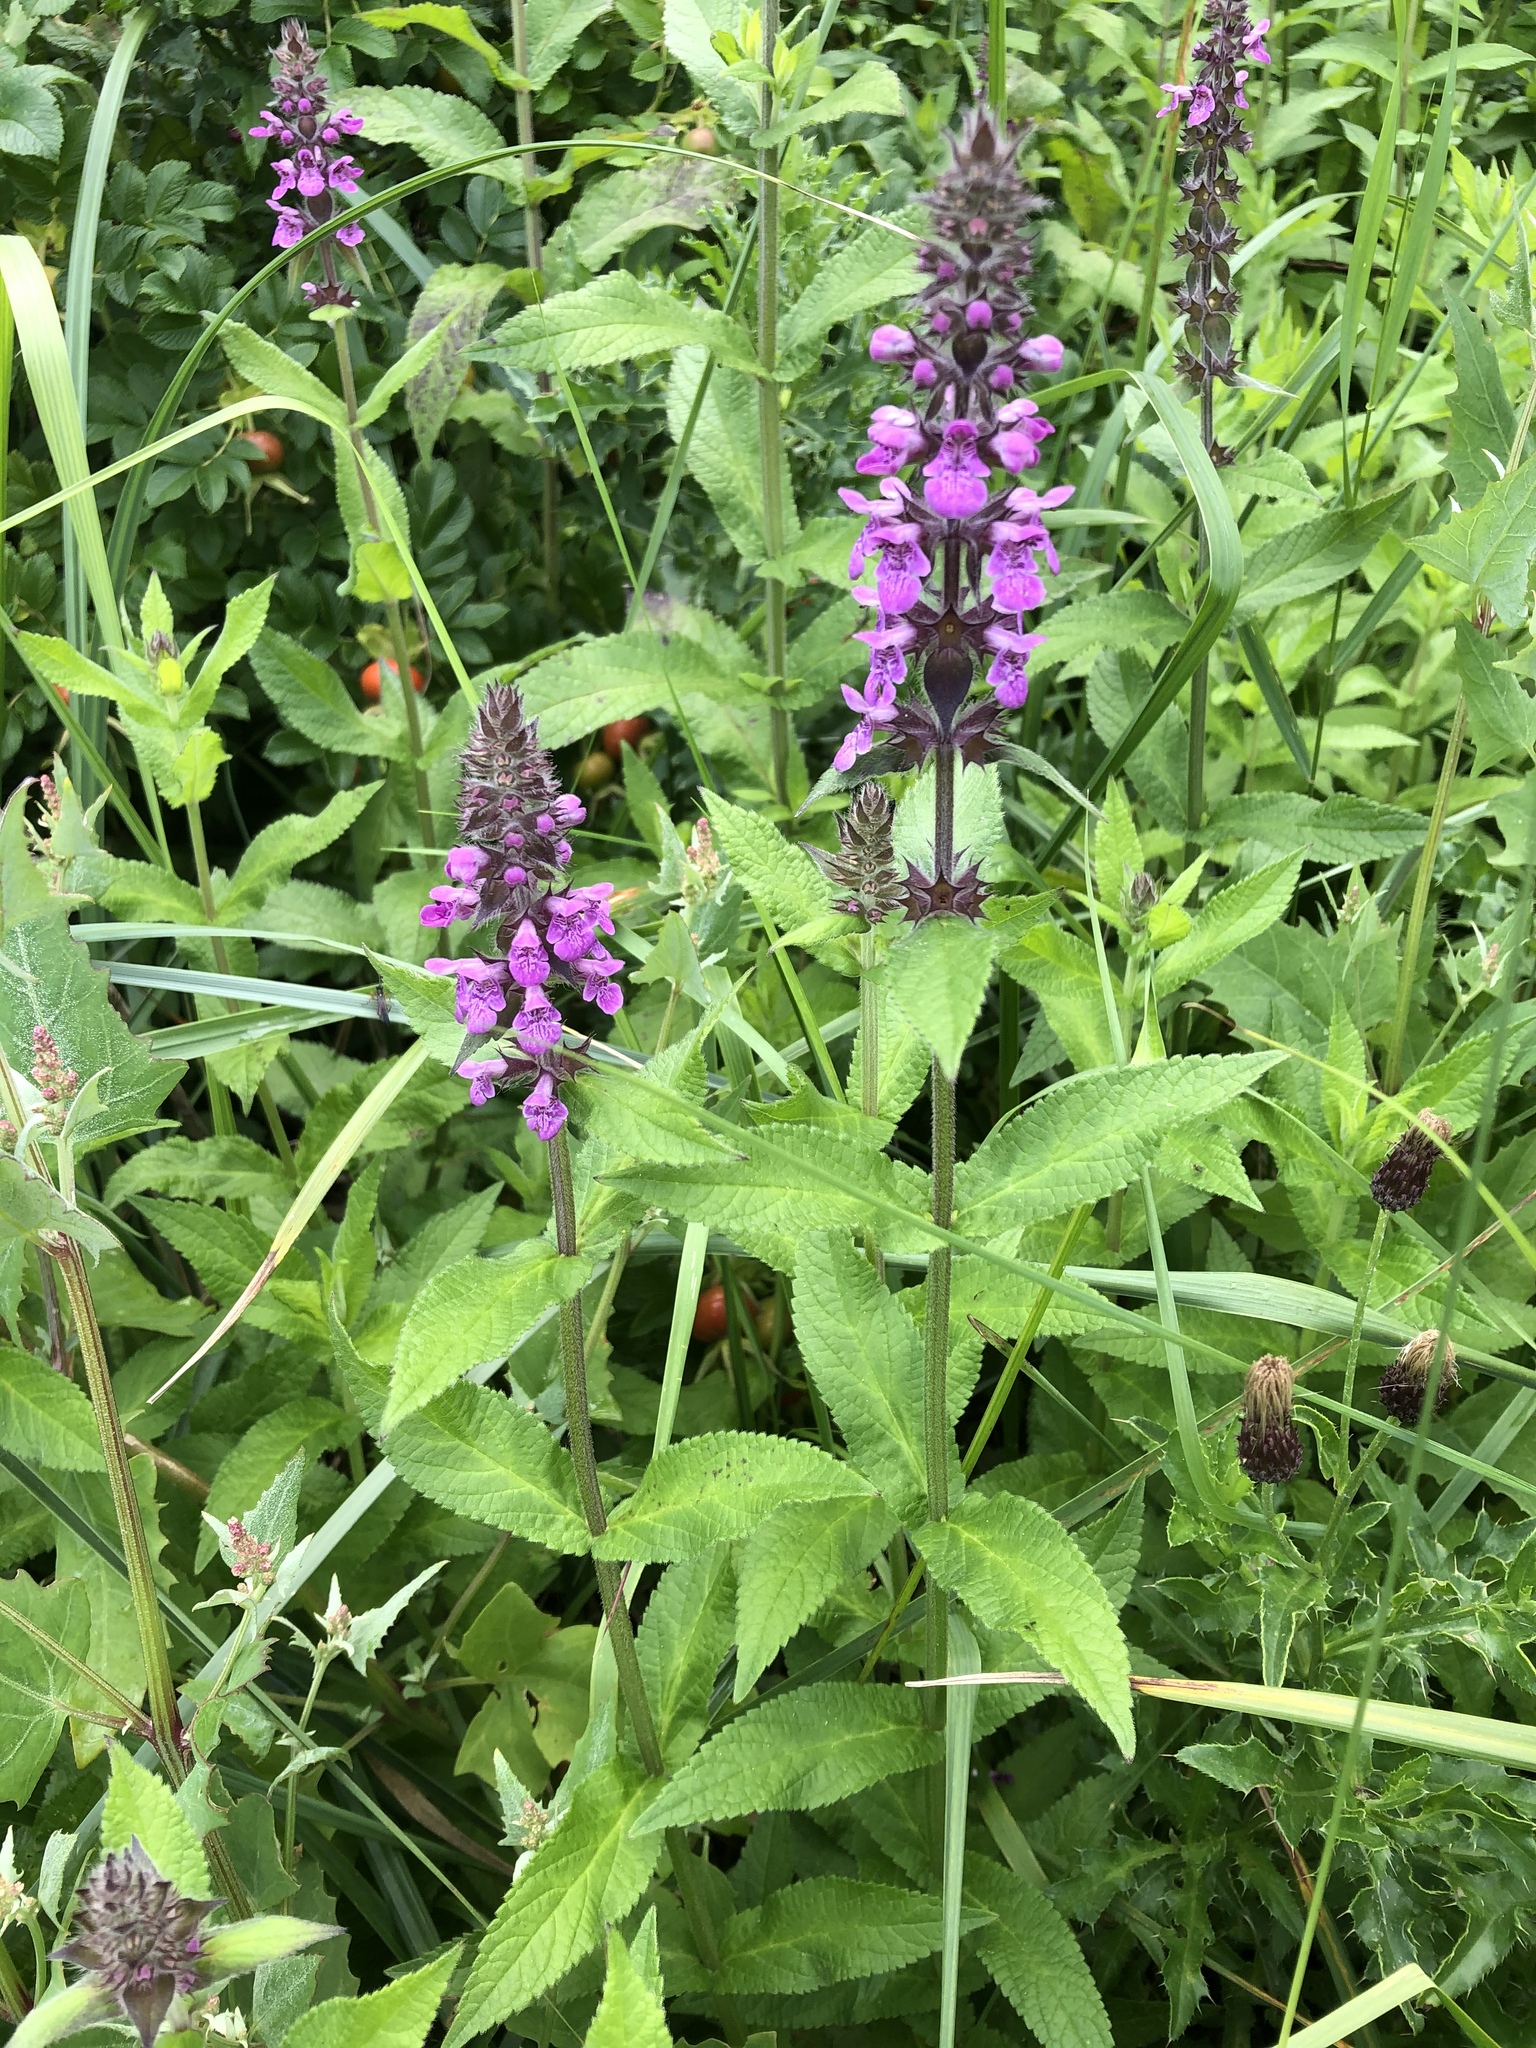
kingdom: Plantae
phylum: Tracheophyta
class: Magnoliopsida
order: Lamiales
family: Lamiaceae
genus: Stachys
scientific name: Stachys palustris
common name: Marsh woundwort
